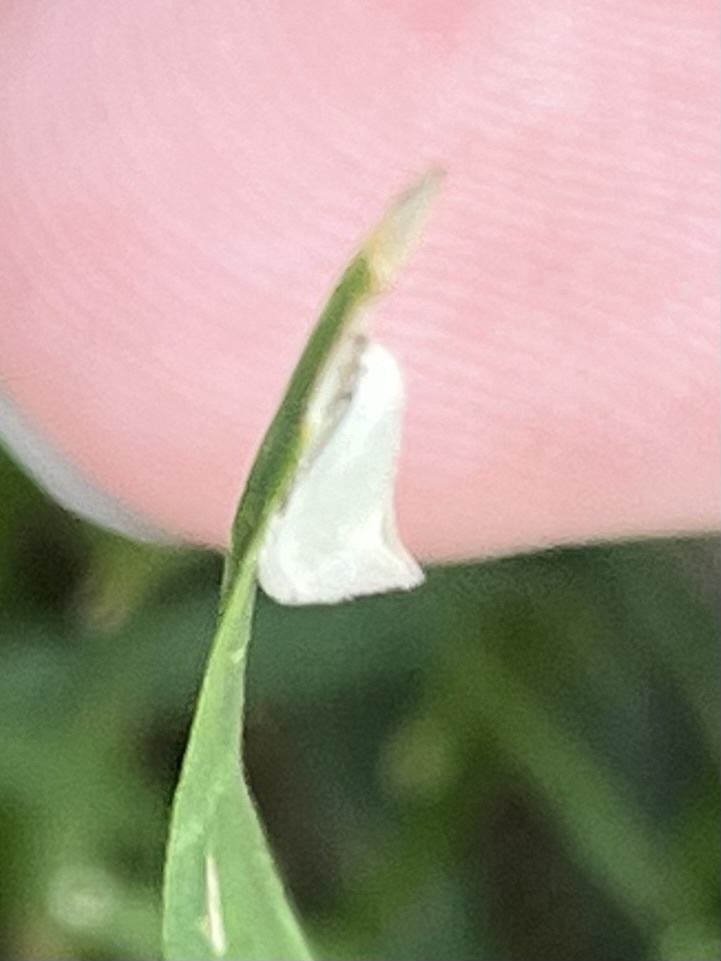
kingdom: Animalia
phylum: Arthropoda
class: Insecta
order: Lepidoptera
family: Elachistidae
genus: Elachista
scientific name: Elachista argentella
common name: Swan-feather dwarf
